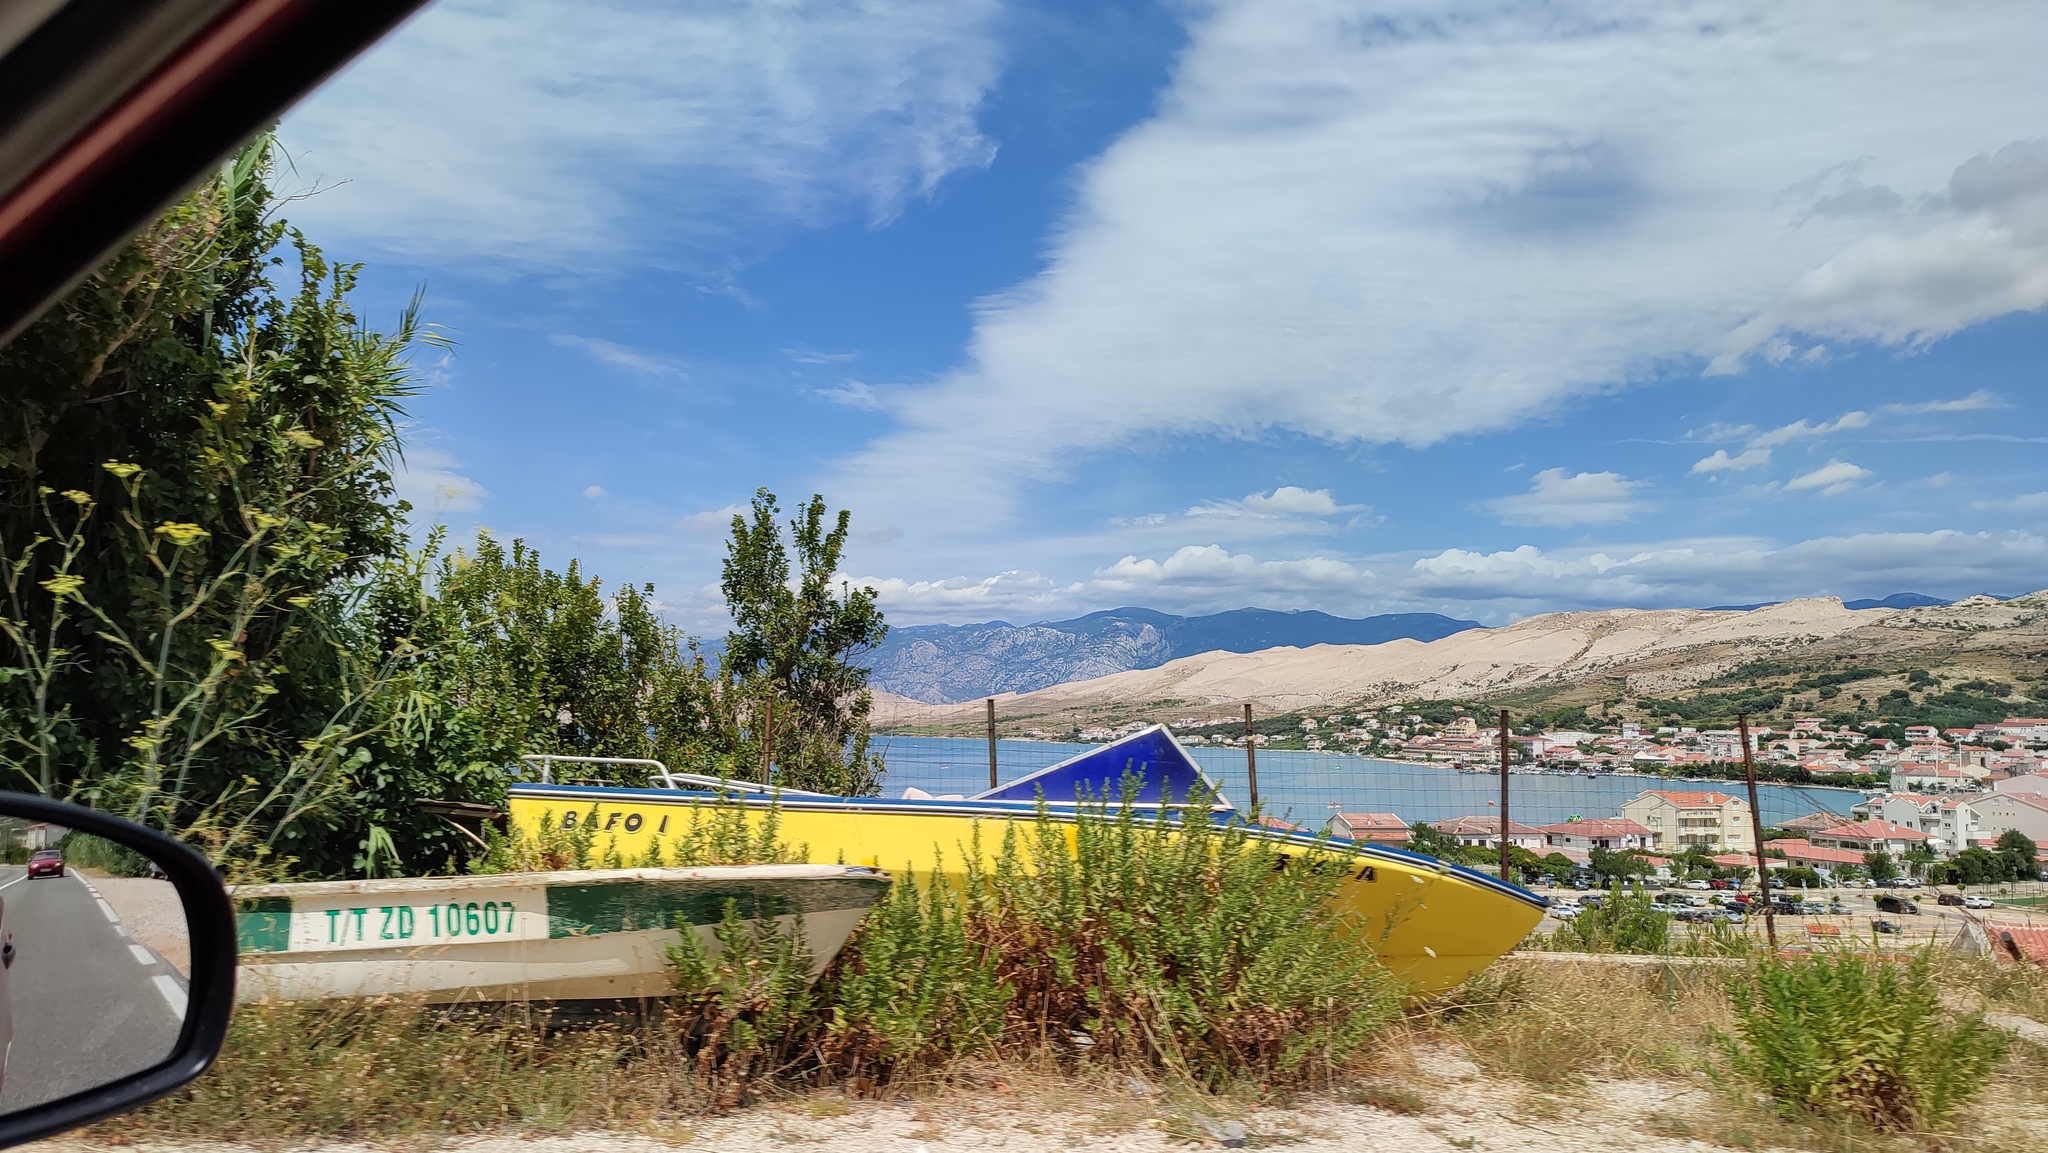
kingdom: Plantae
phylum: Tracheophyta
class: Magnoliopsida
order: Asterales
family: Asteraceae
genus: Dittrichia
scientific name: Dittrichia viscosa
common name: Woody fleabane
